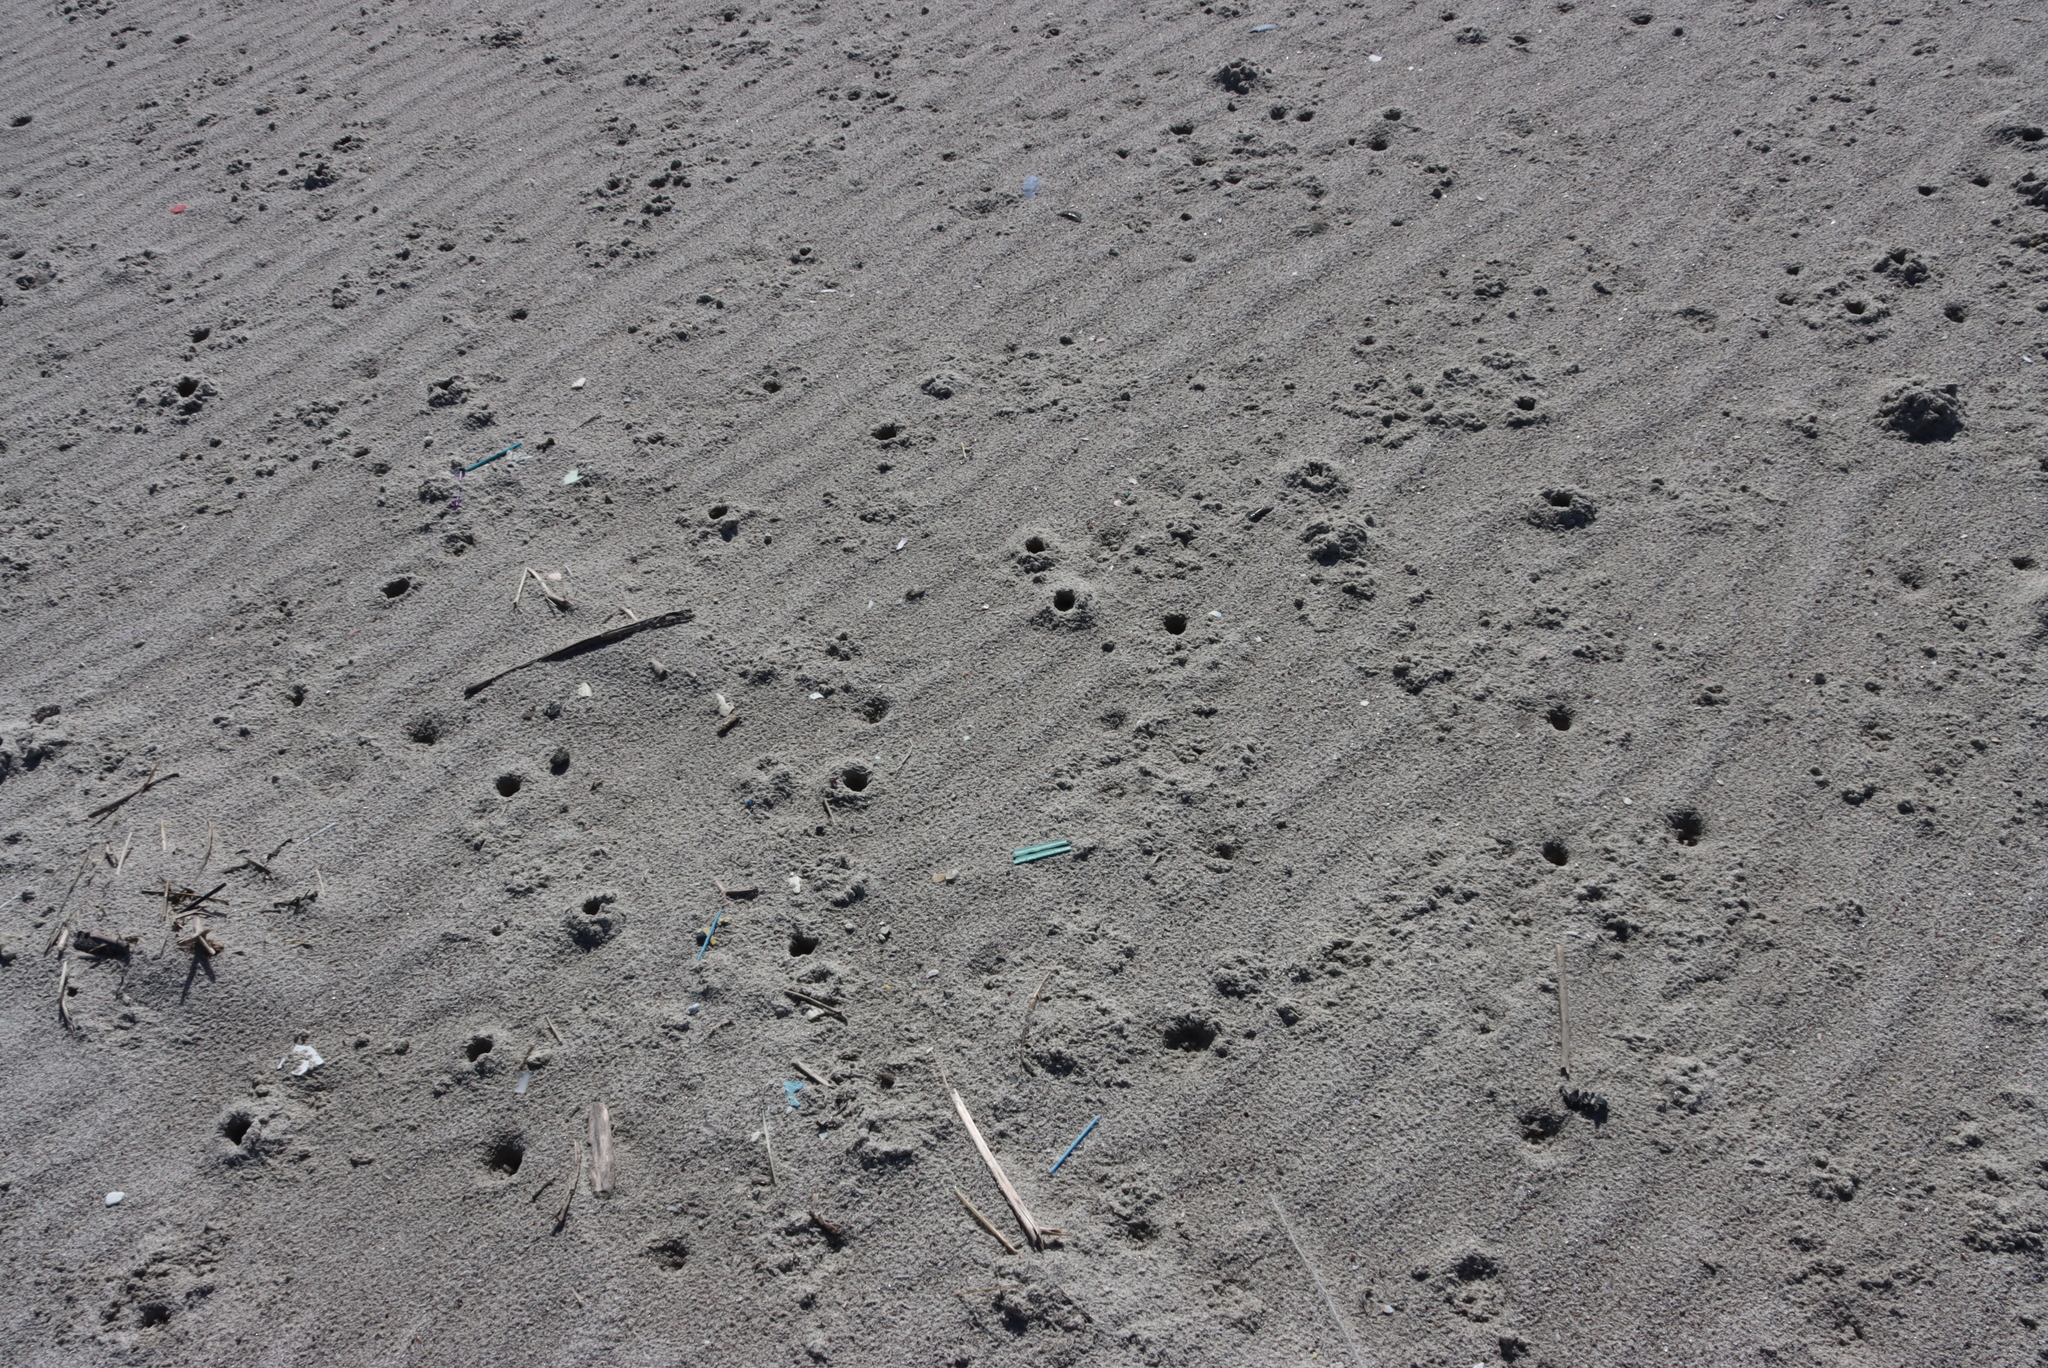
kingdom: Animalia
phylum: Arthropoda
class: Malacostraca
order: Isopoda
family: Tylidae
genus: Tylos
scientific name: Tylos granulatus
